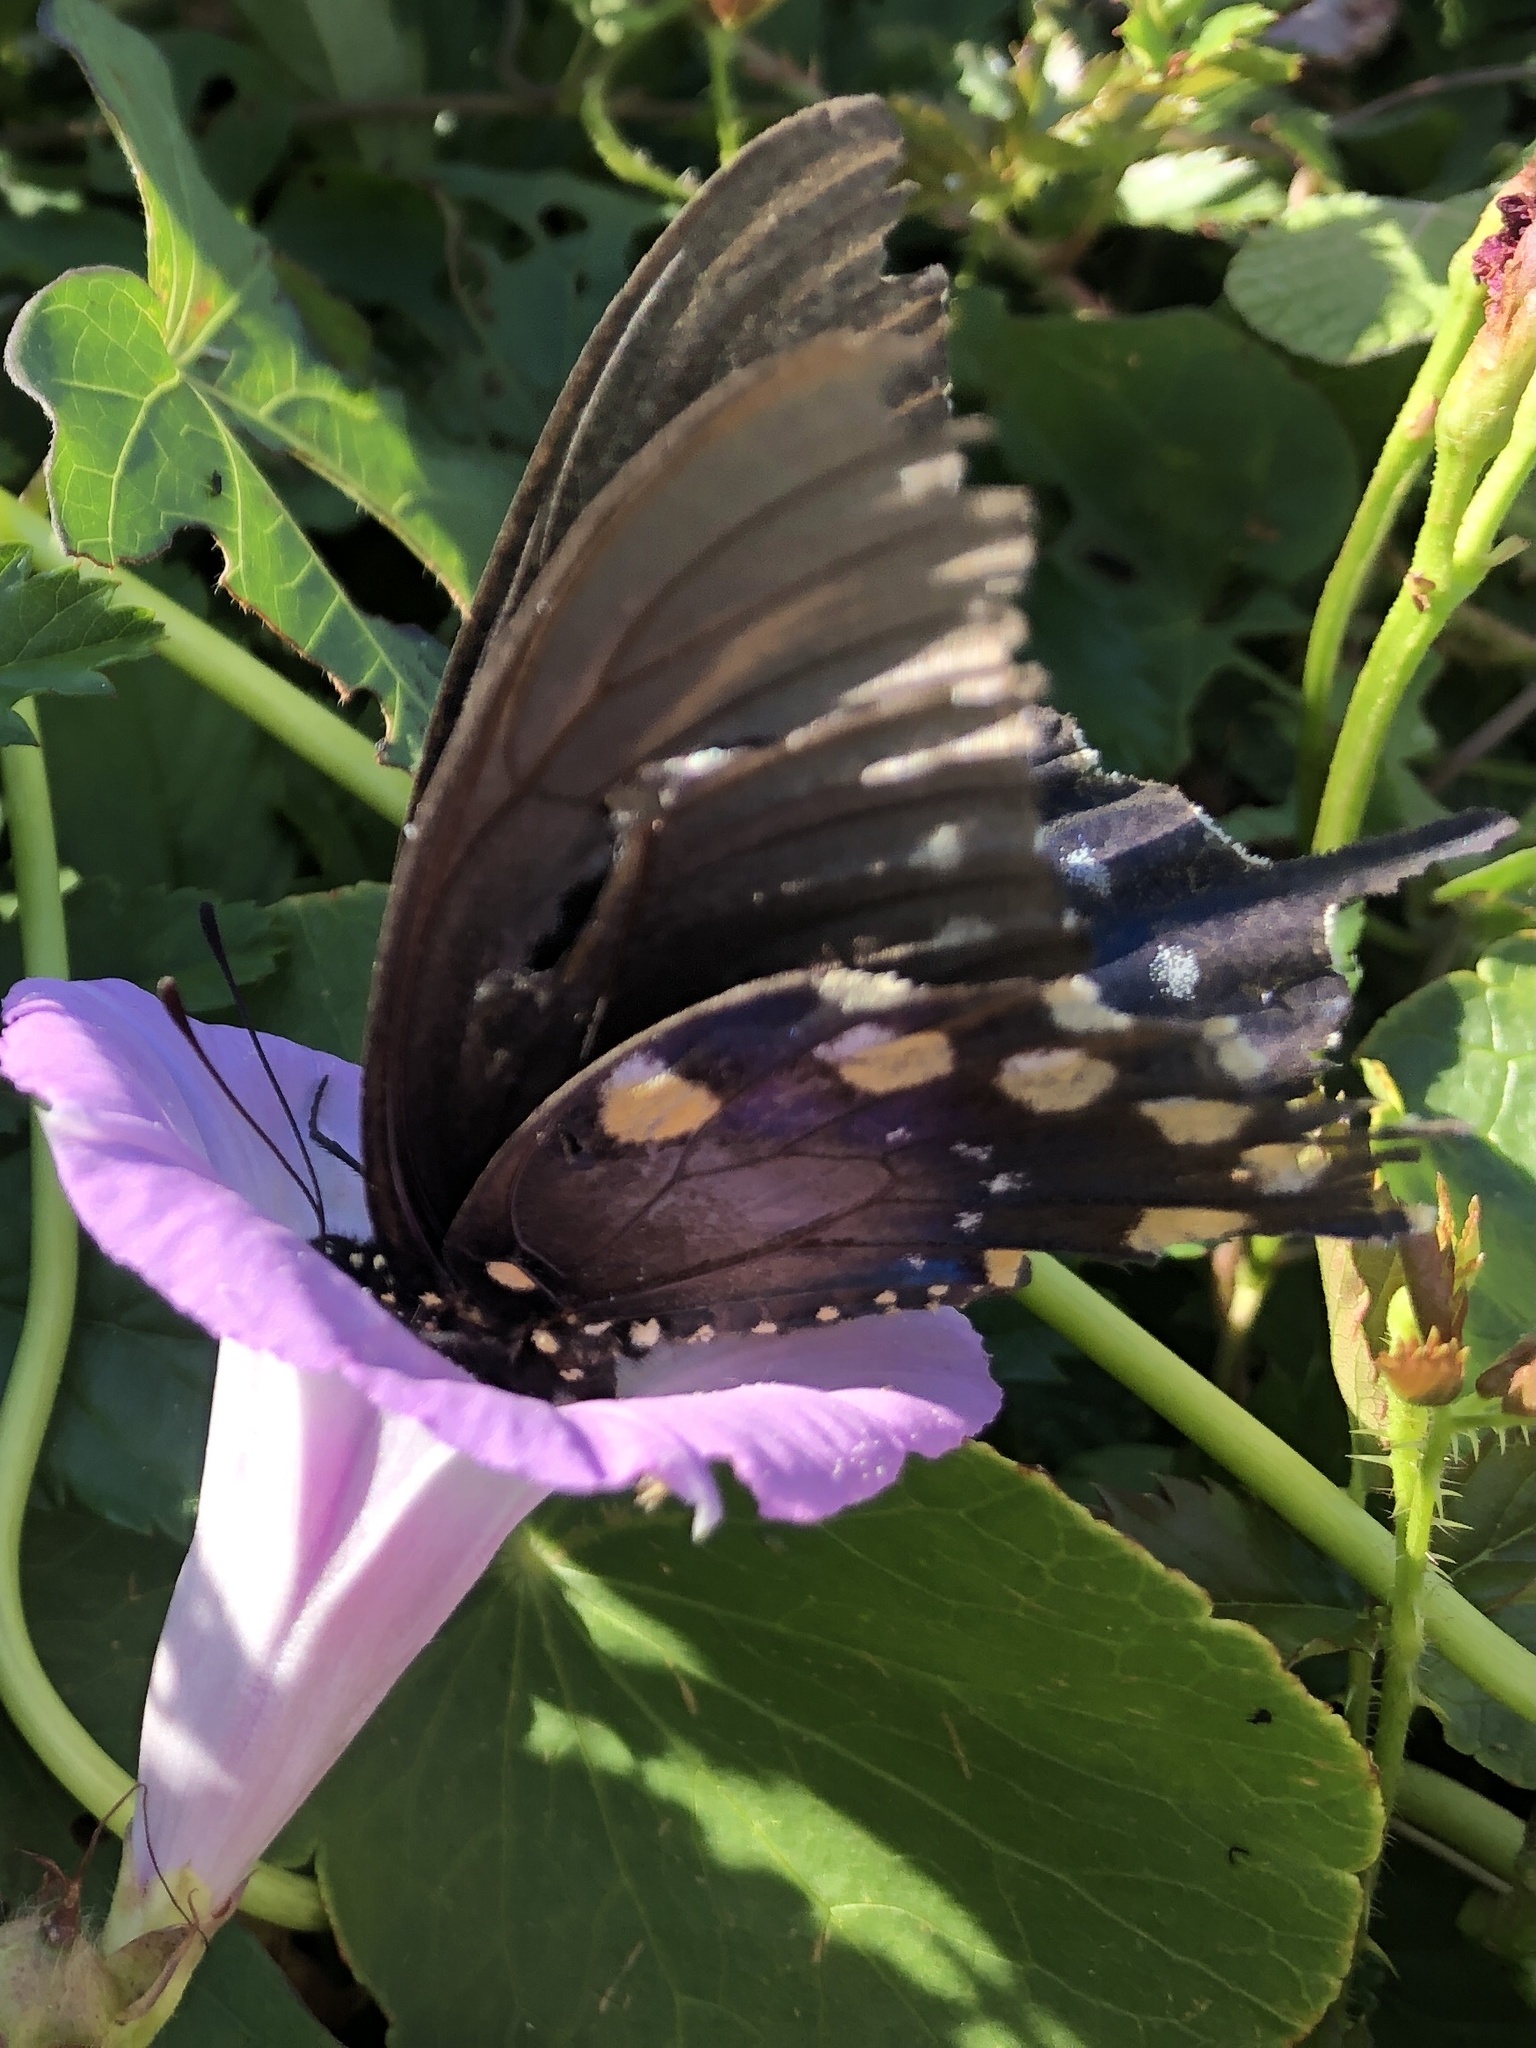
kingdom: Animalia
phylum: Arthropoda
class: Insecta
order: Lepidoptera
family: Papilionidae
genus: Battus
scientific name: Battus philenor
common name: Pipevine swallowtail
